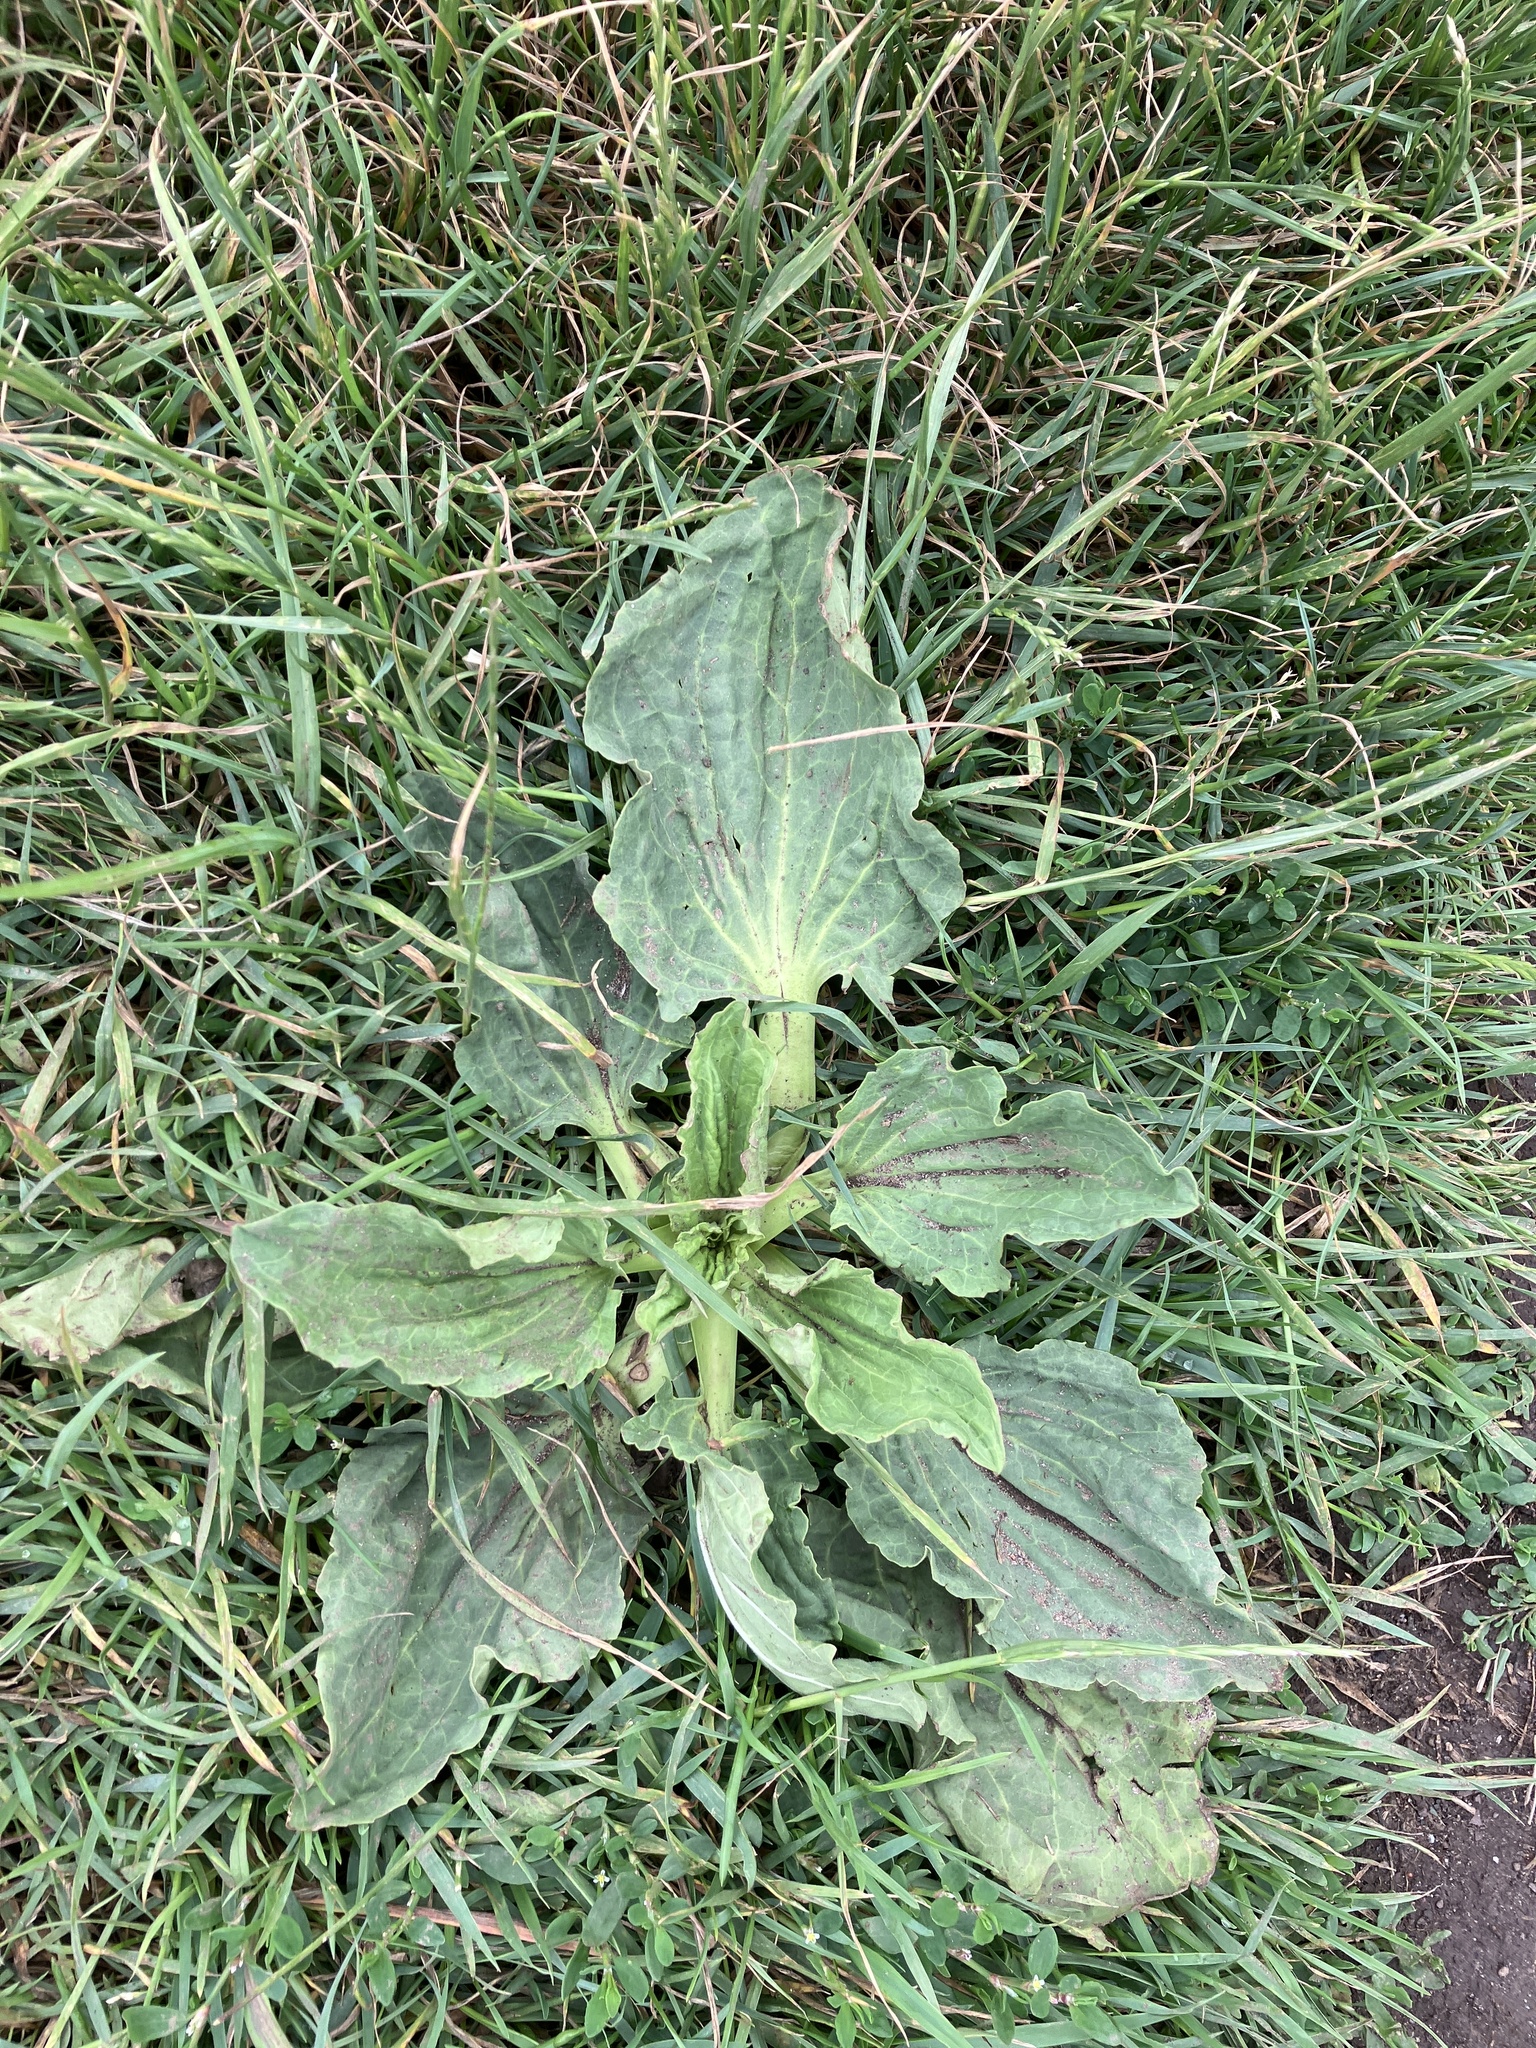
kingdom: Plantae
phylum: Tracheophyta
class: Magnoliopsida
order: Lamiales
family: Plantaginaceae
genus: Plantago
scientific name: Plantago major
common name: Common plantain
